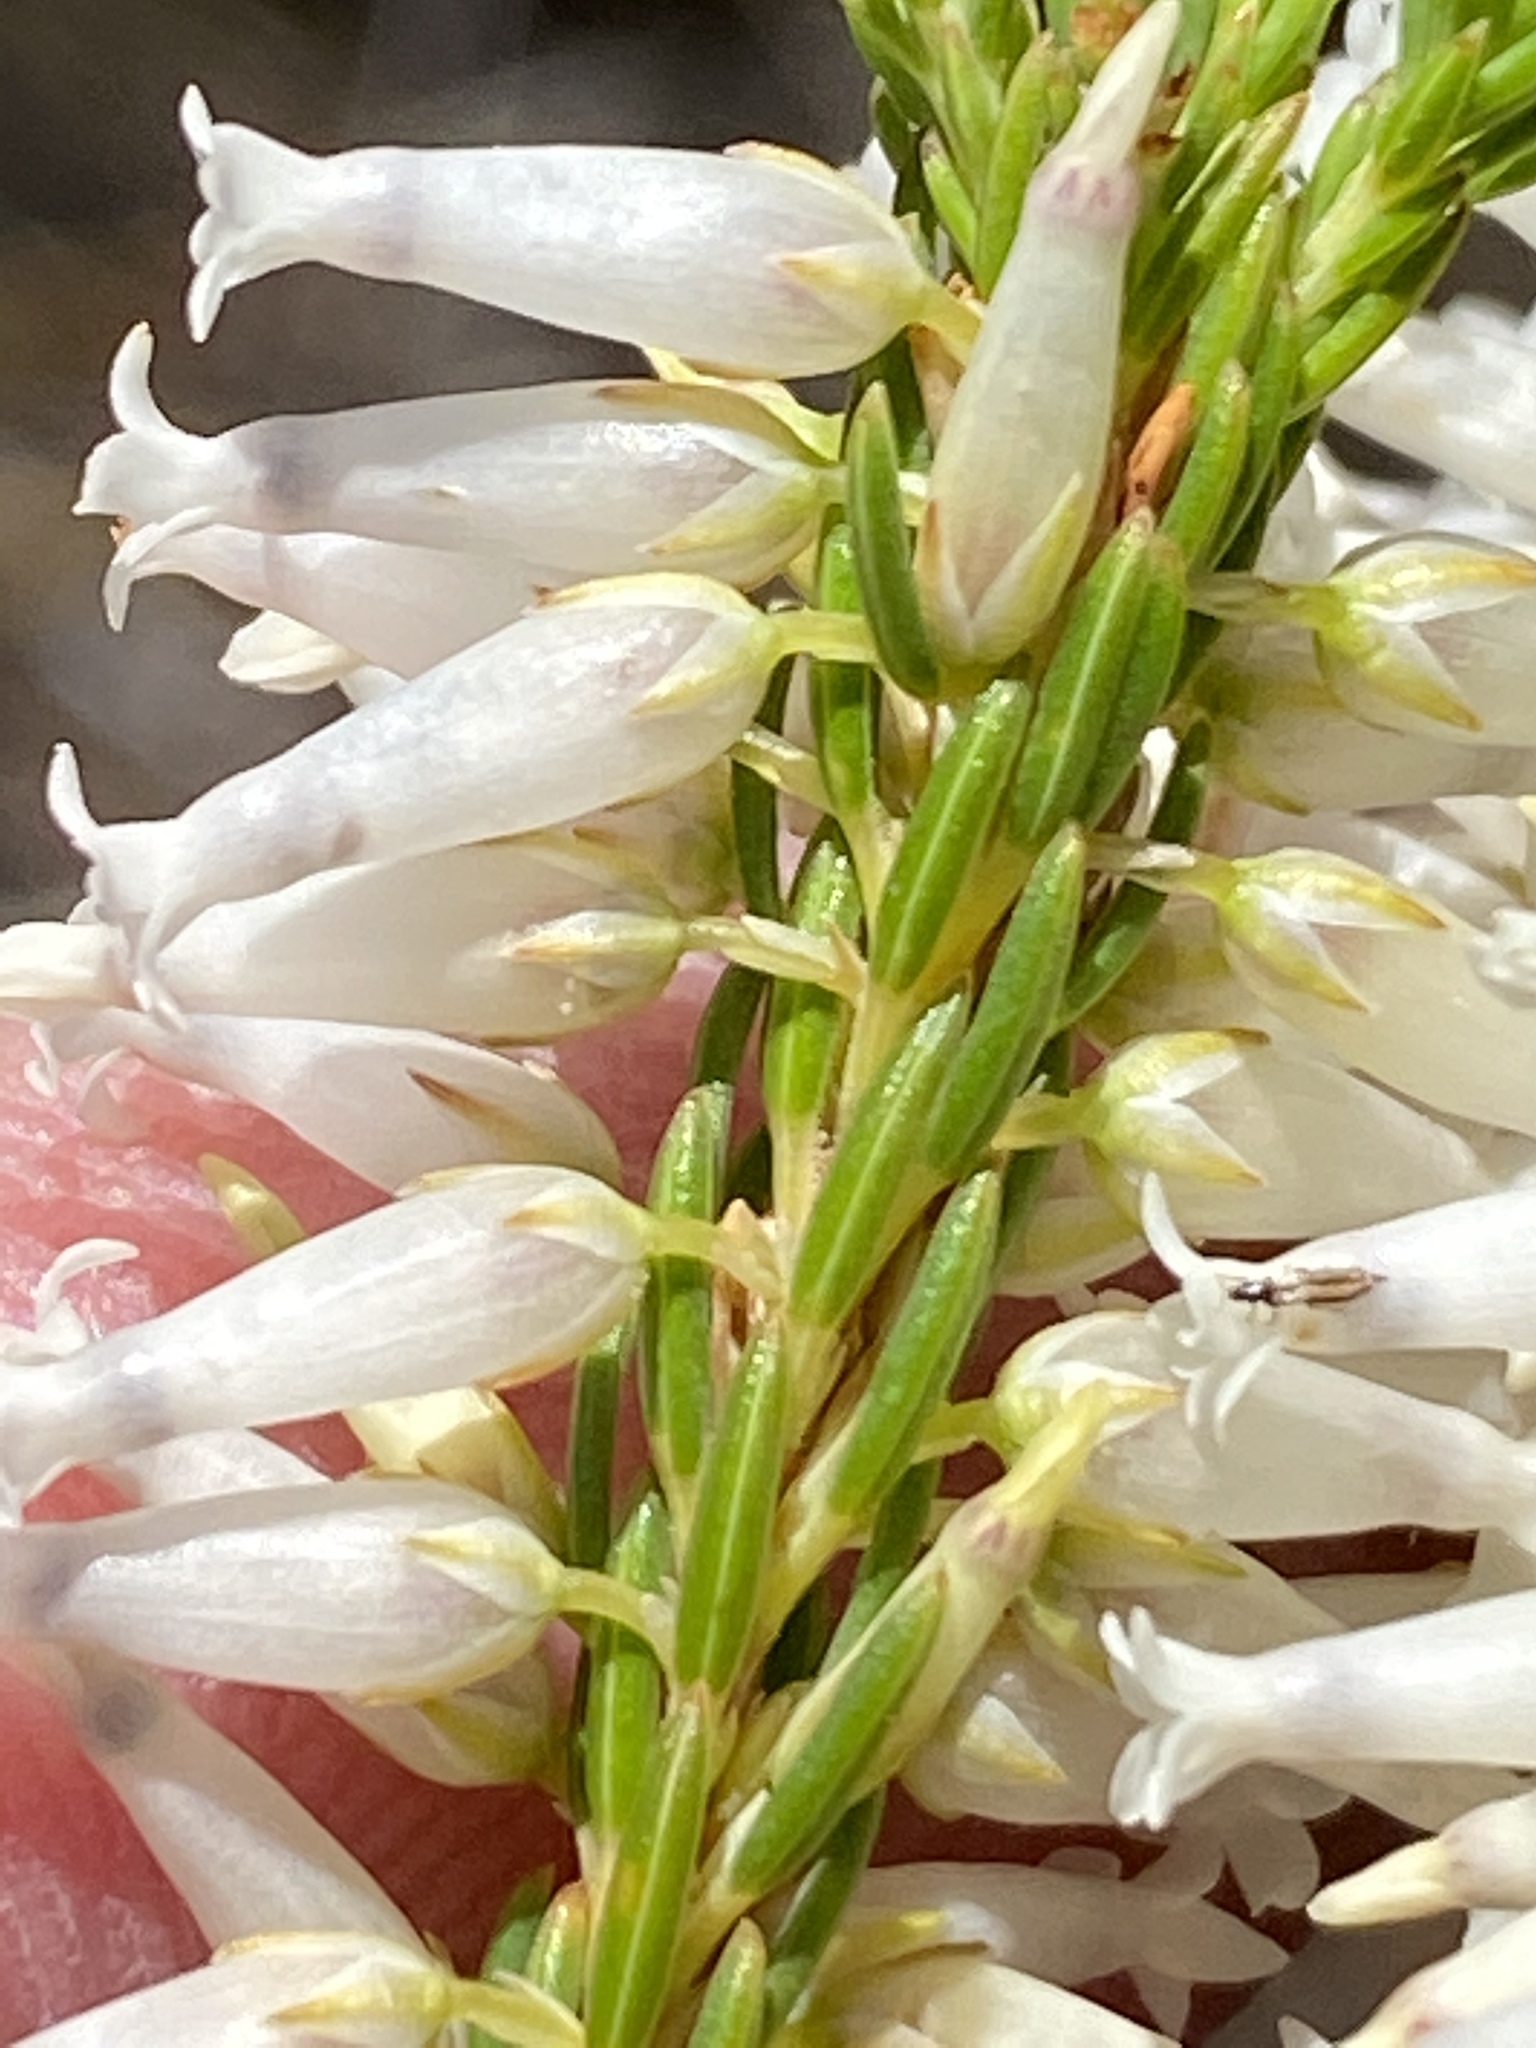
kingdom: Plantae
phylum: Tracheophyta
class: Magnoliopsida
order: Ericales
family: Ericaceae
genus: Erica
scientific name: Erica albens
